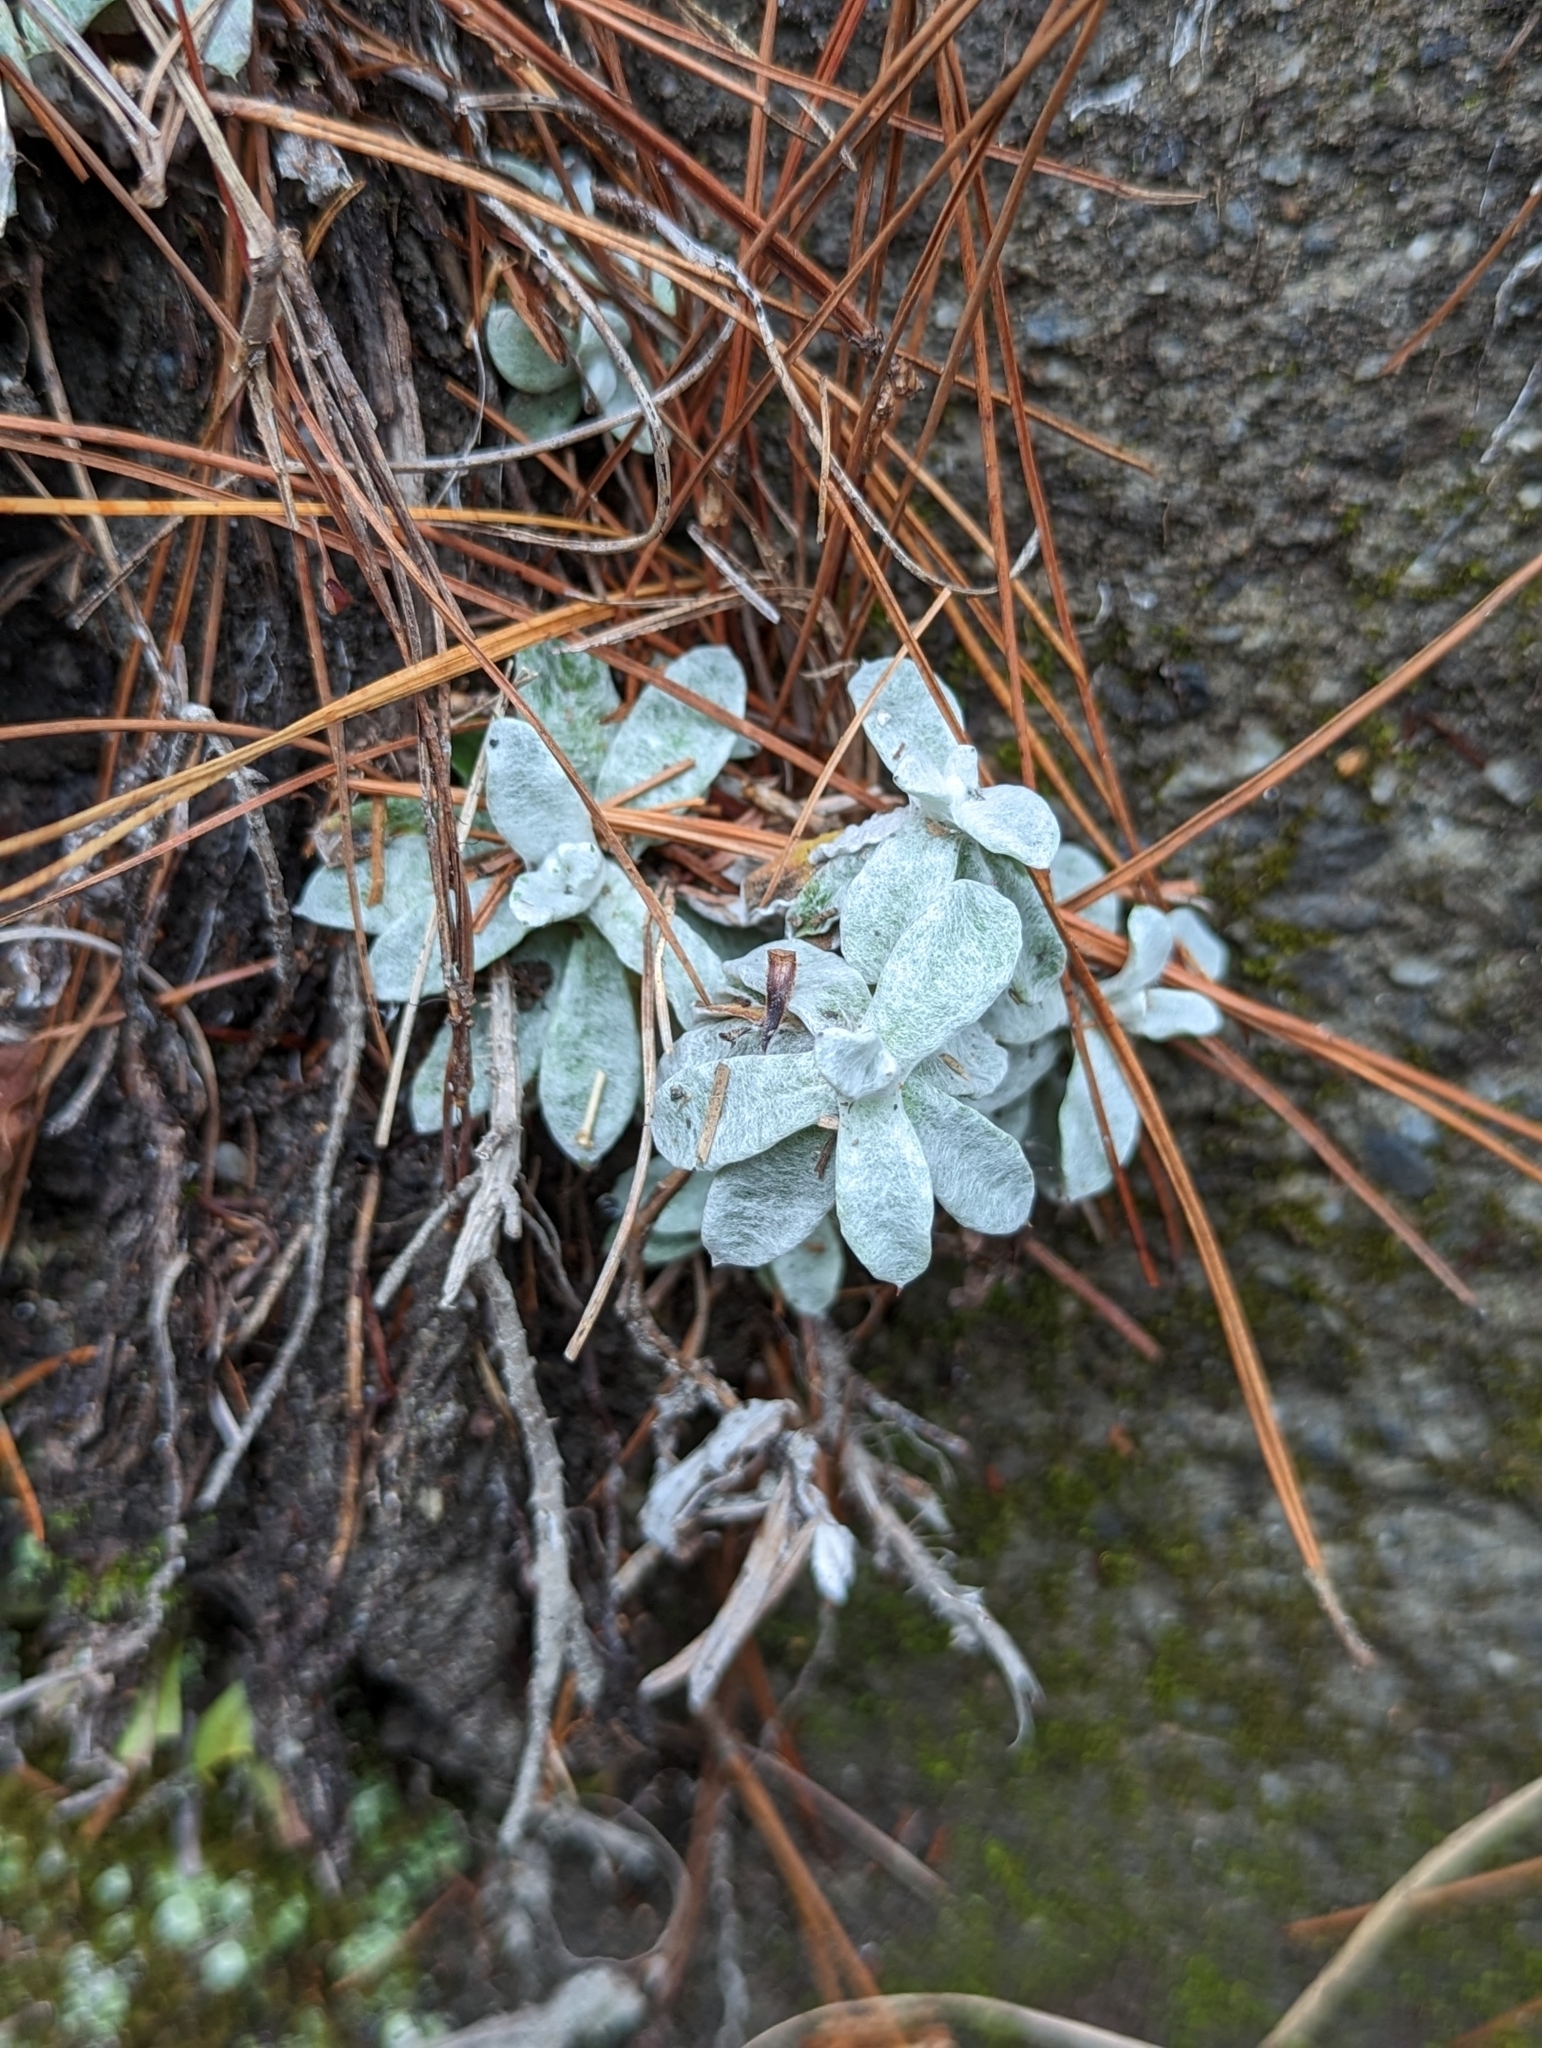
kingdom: Plantae
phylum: Tracheophyta
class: Magnoliopsida
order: Asterales
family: Asteraceae
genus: Anaphalis
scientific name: Anaphalis morrisonicola
